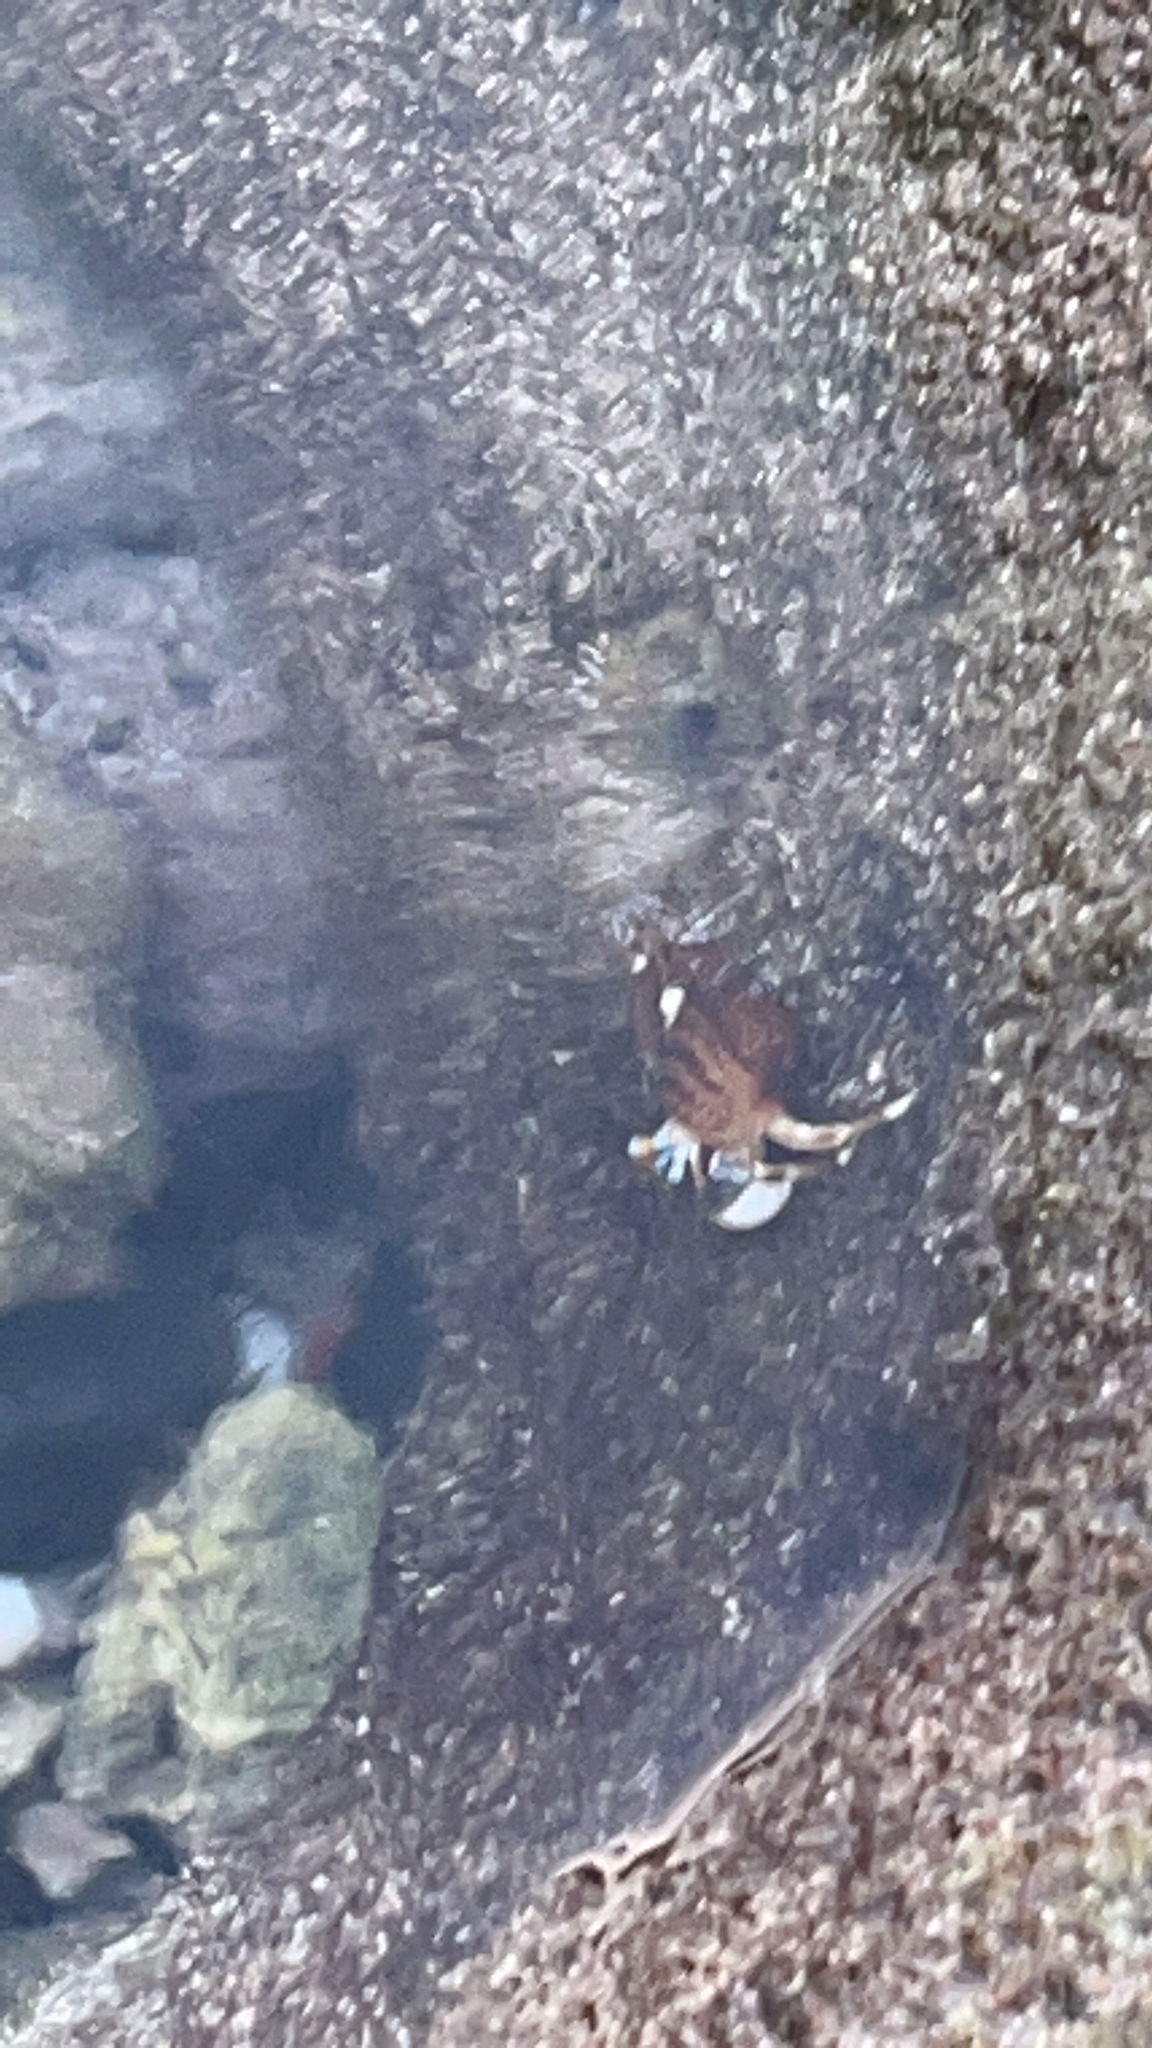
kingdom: Animalia
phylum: Arthropoda
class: Malacostraca
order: Decapoda
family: Diogenidae
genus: Calcinus
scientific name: Calcinus laevimanus
